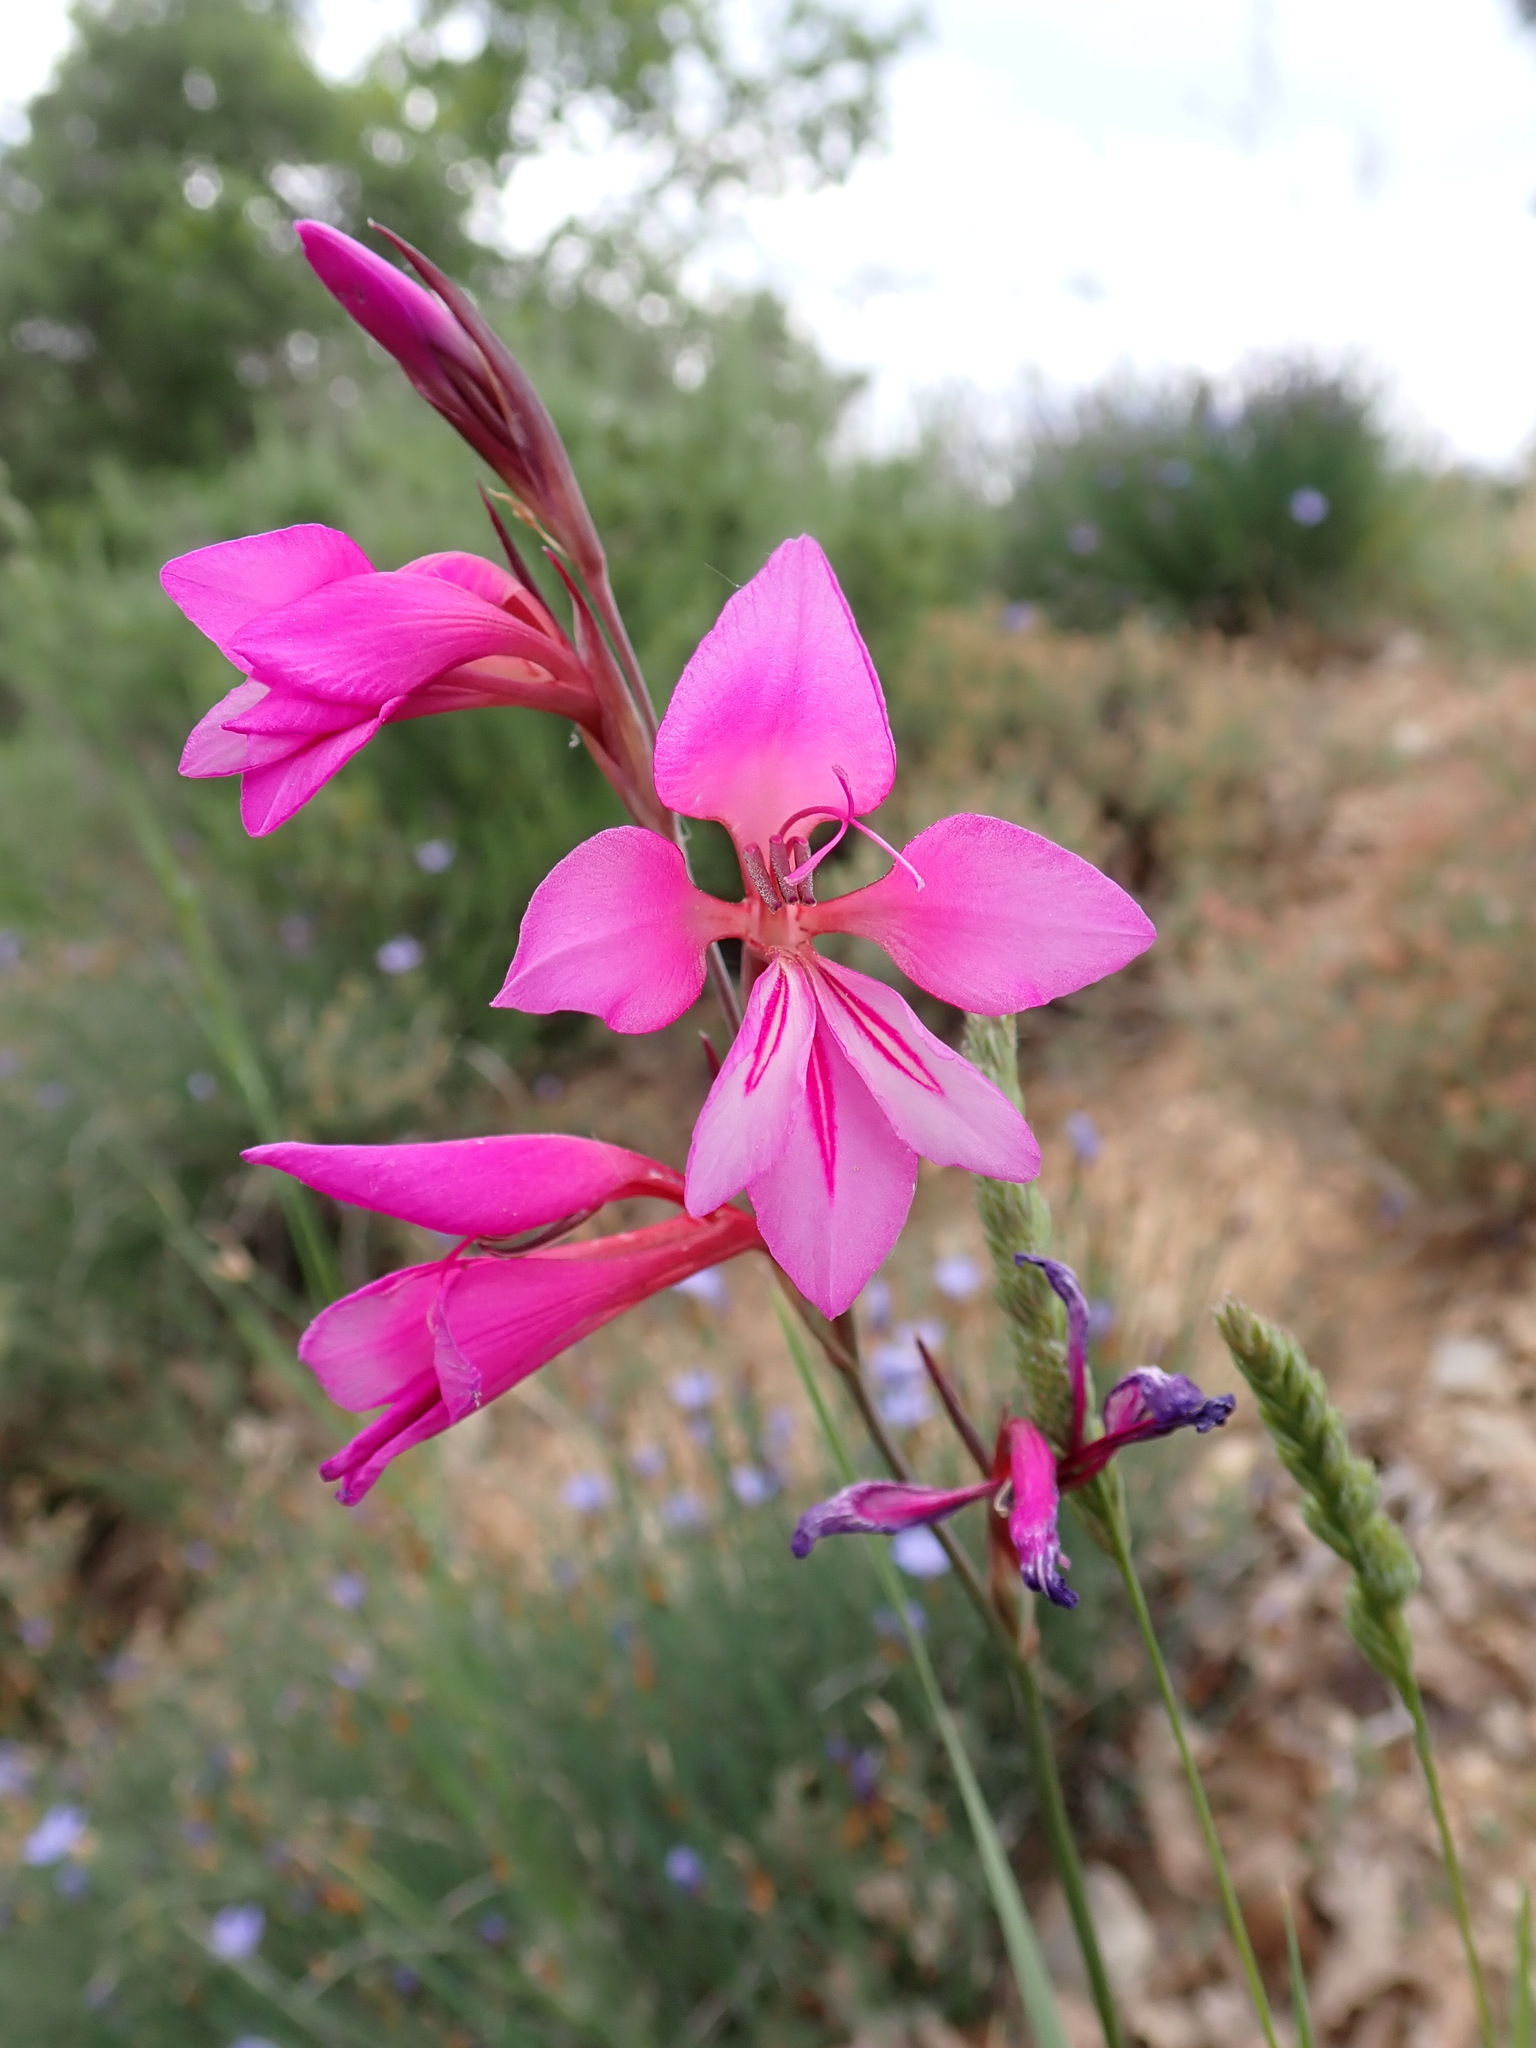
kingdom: Plantae
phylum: Tracheophyta
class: Liliopsida
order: Asparagales
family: Iridaceae
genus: Gladiolus
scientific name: Gladiolus dubius
